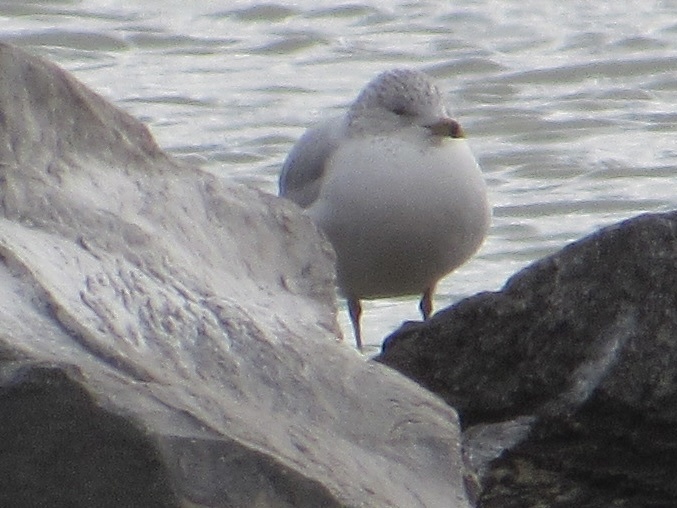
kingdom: Animalia
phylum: Chordata
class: Aves
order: Charadriiformes
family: Laridae
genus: Larus
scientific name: Larus delawarensis
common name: Ring-billed gull
